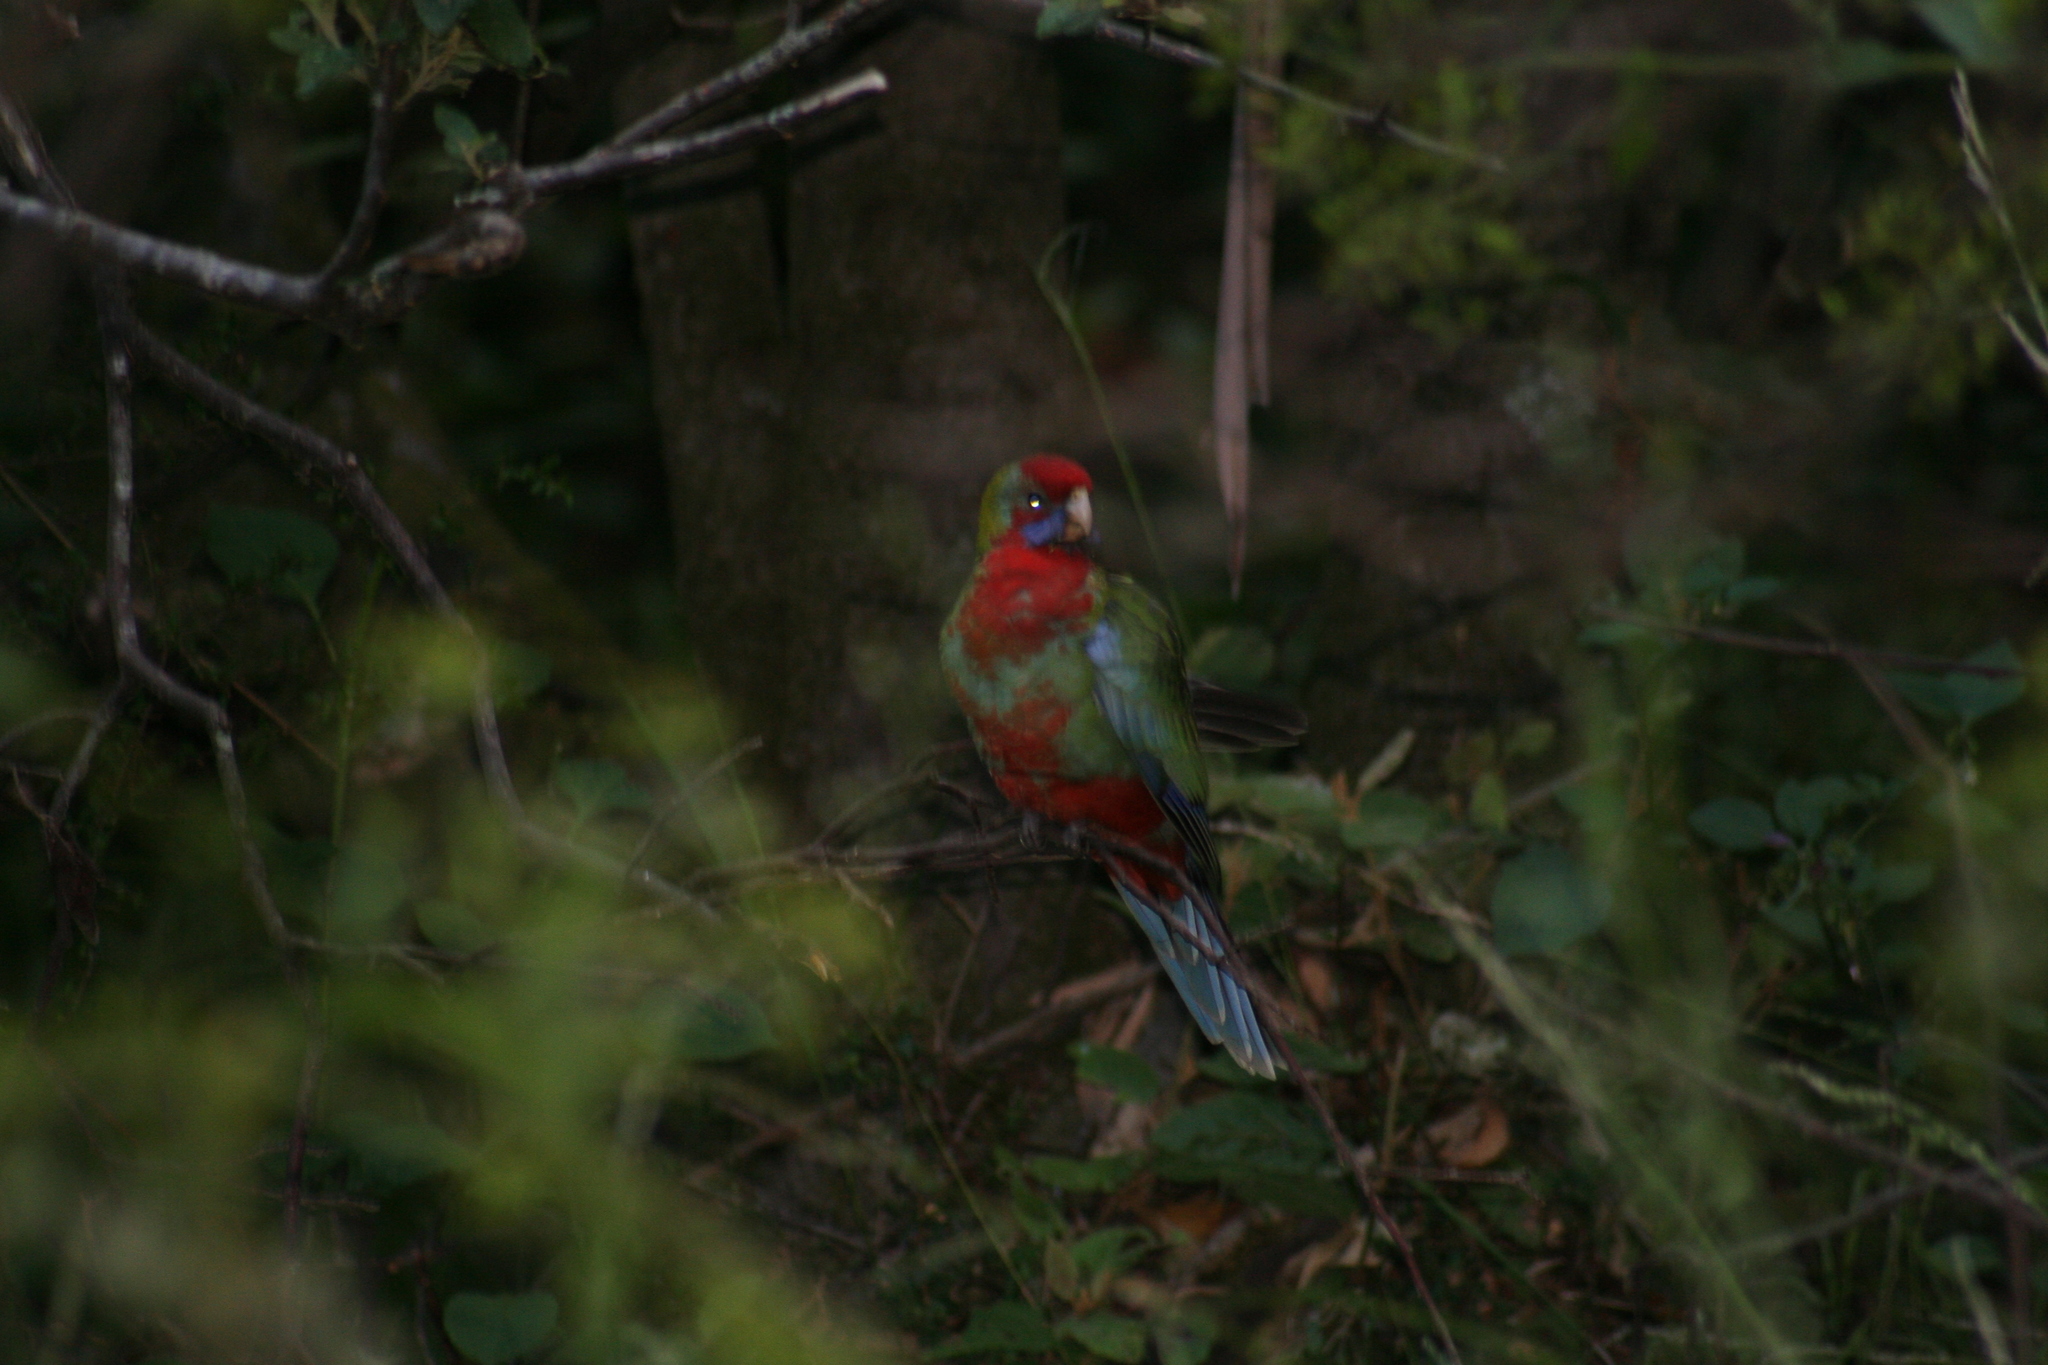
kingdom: Animalia
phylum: Chordata
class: Aves
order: Psittaciformes
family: Psittacidae
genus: Platycercus
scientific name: Platycercus elegans
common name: Crimson rosella
